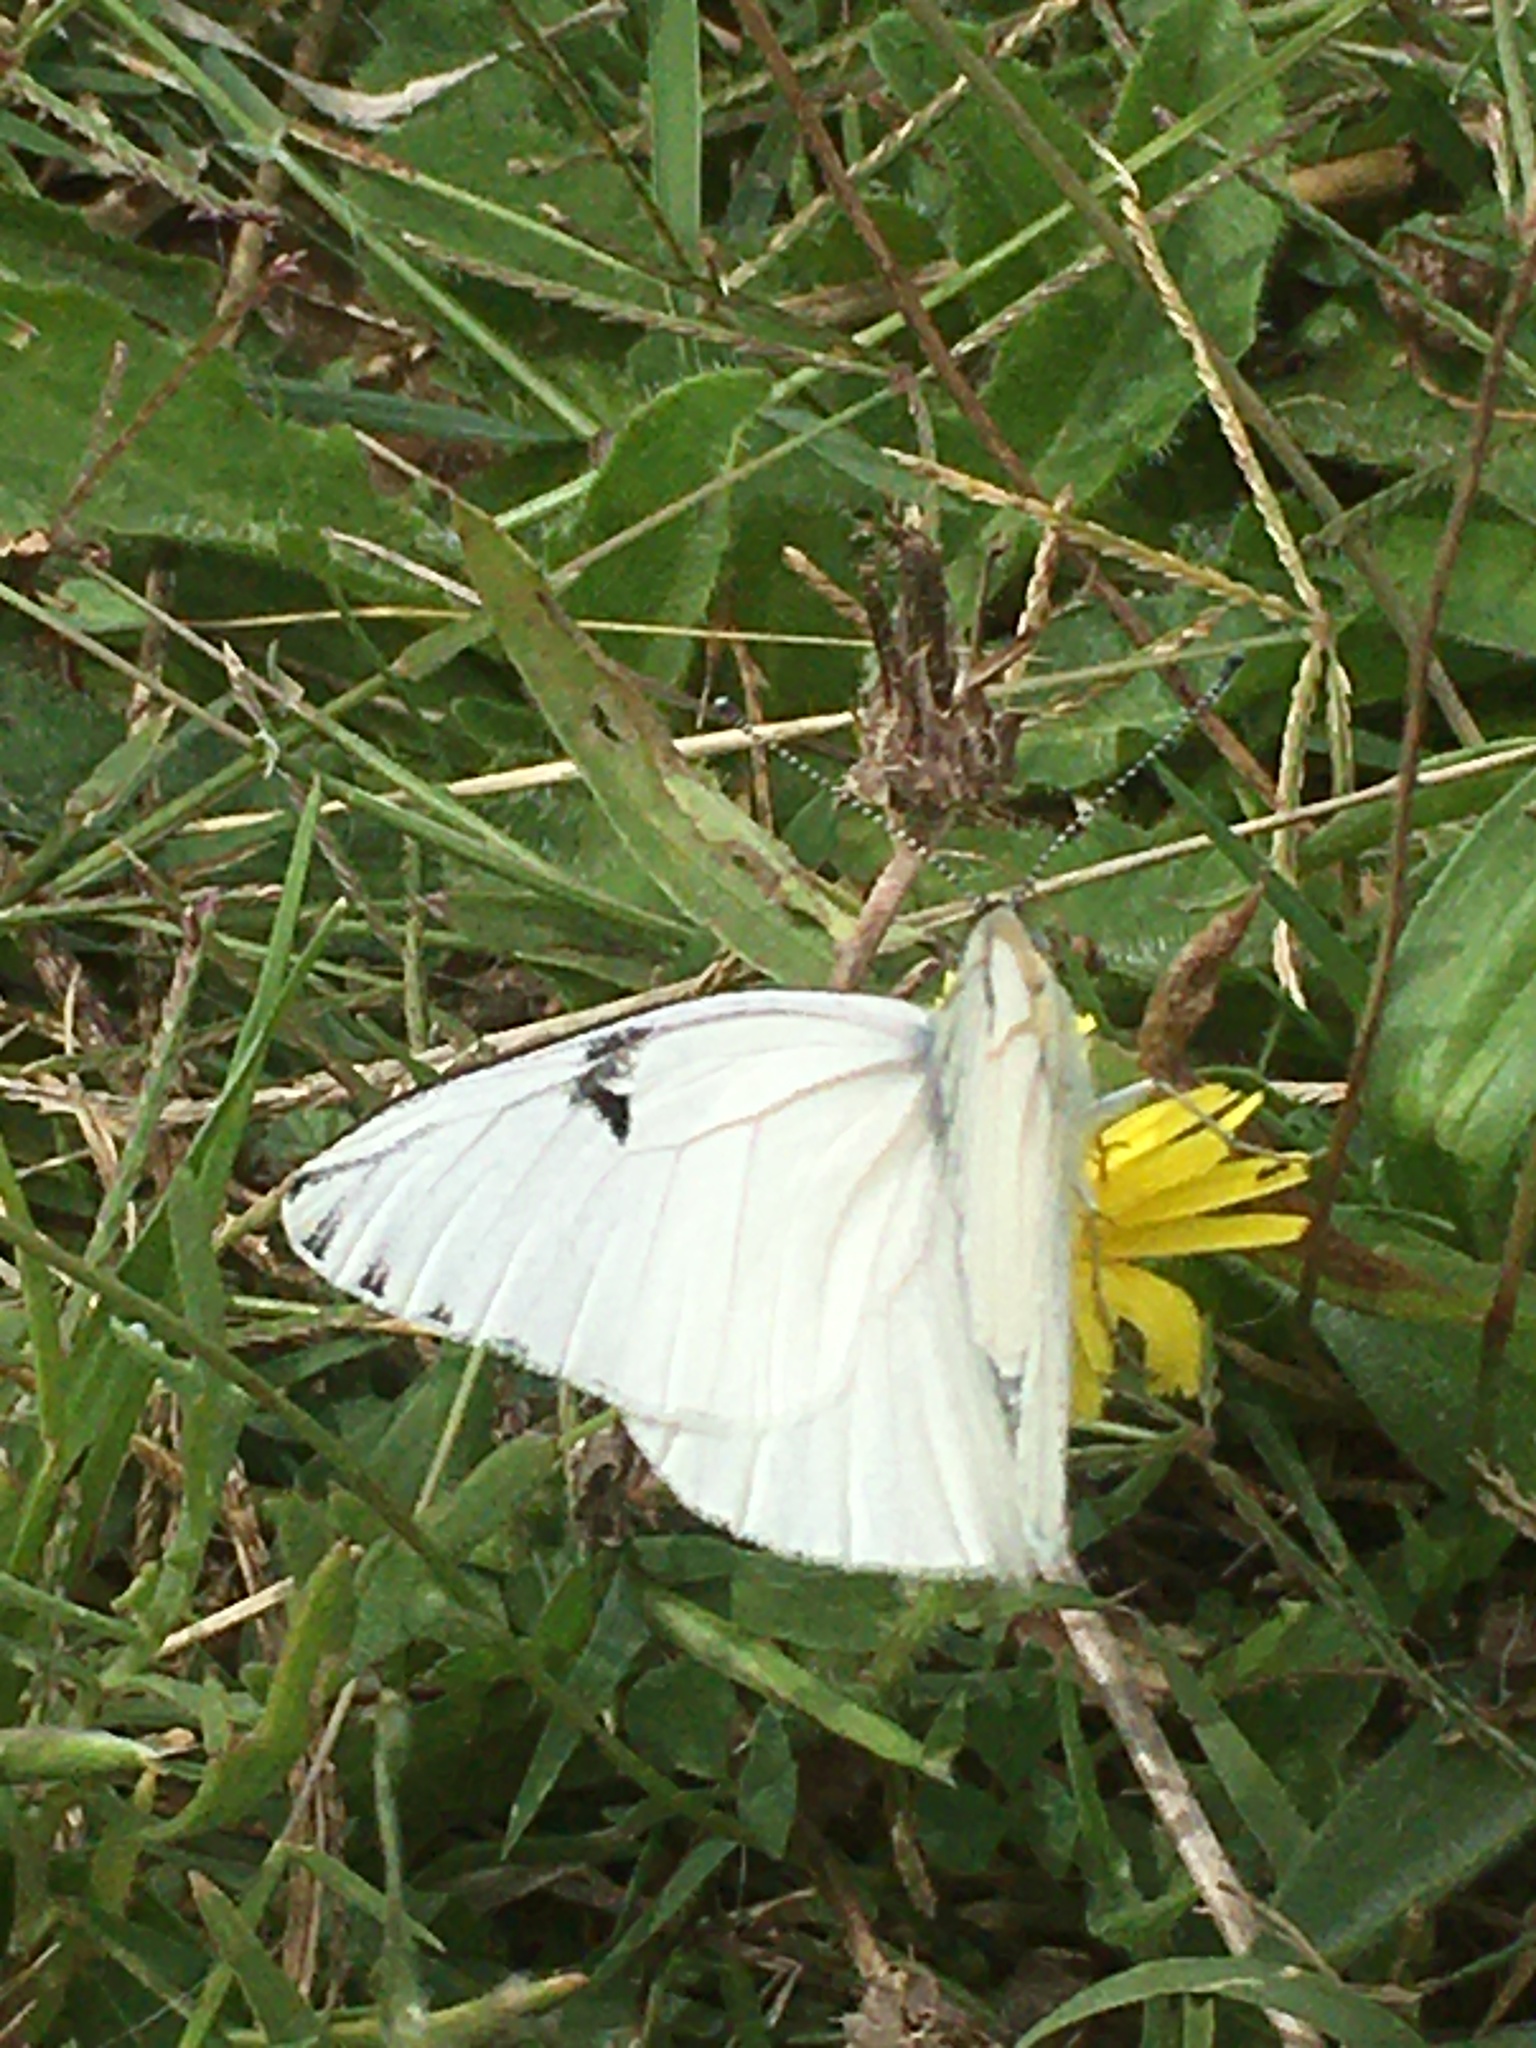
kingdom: Animalia
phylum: Arthropoda
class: Insecta
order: Lepidoptera
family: Pieridae
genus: Tatochila
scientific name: Tatochila mercedis
